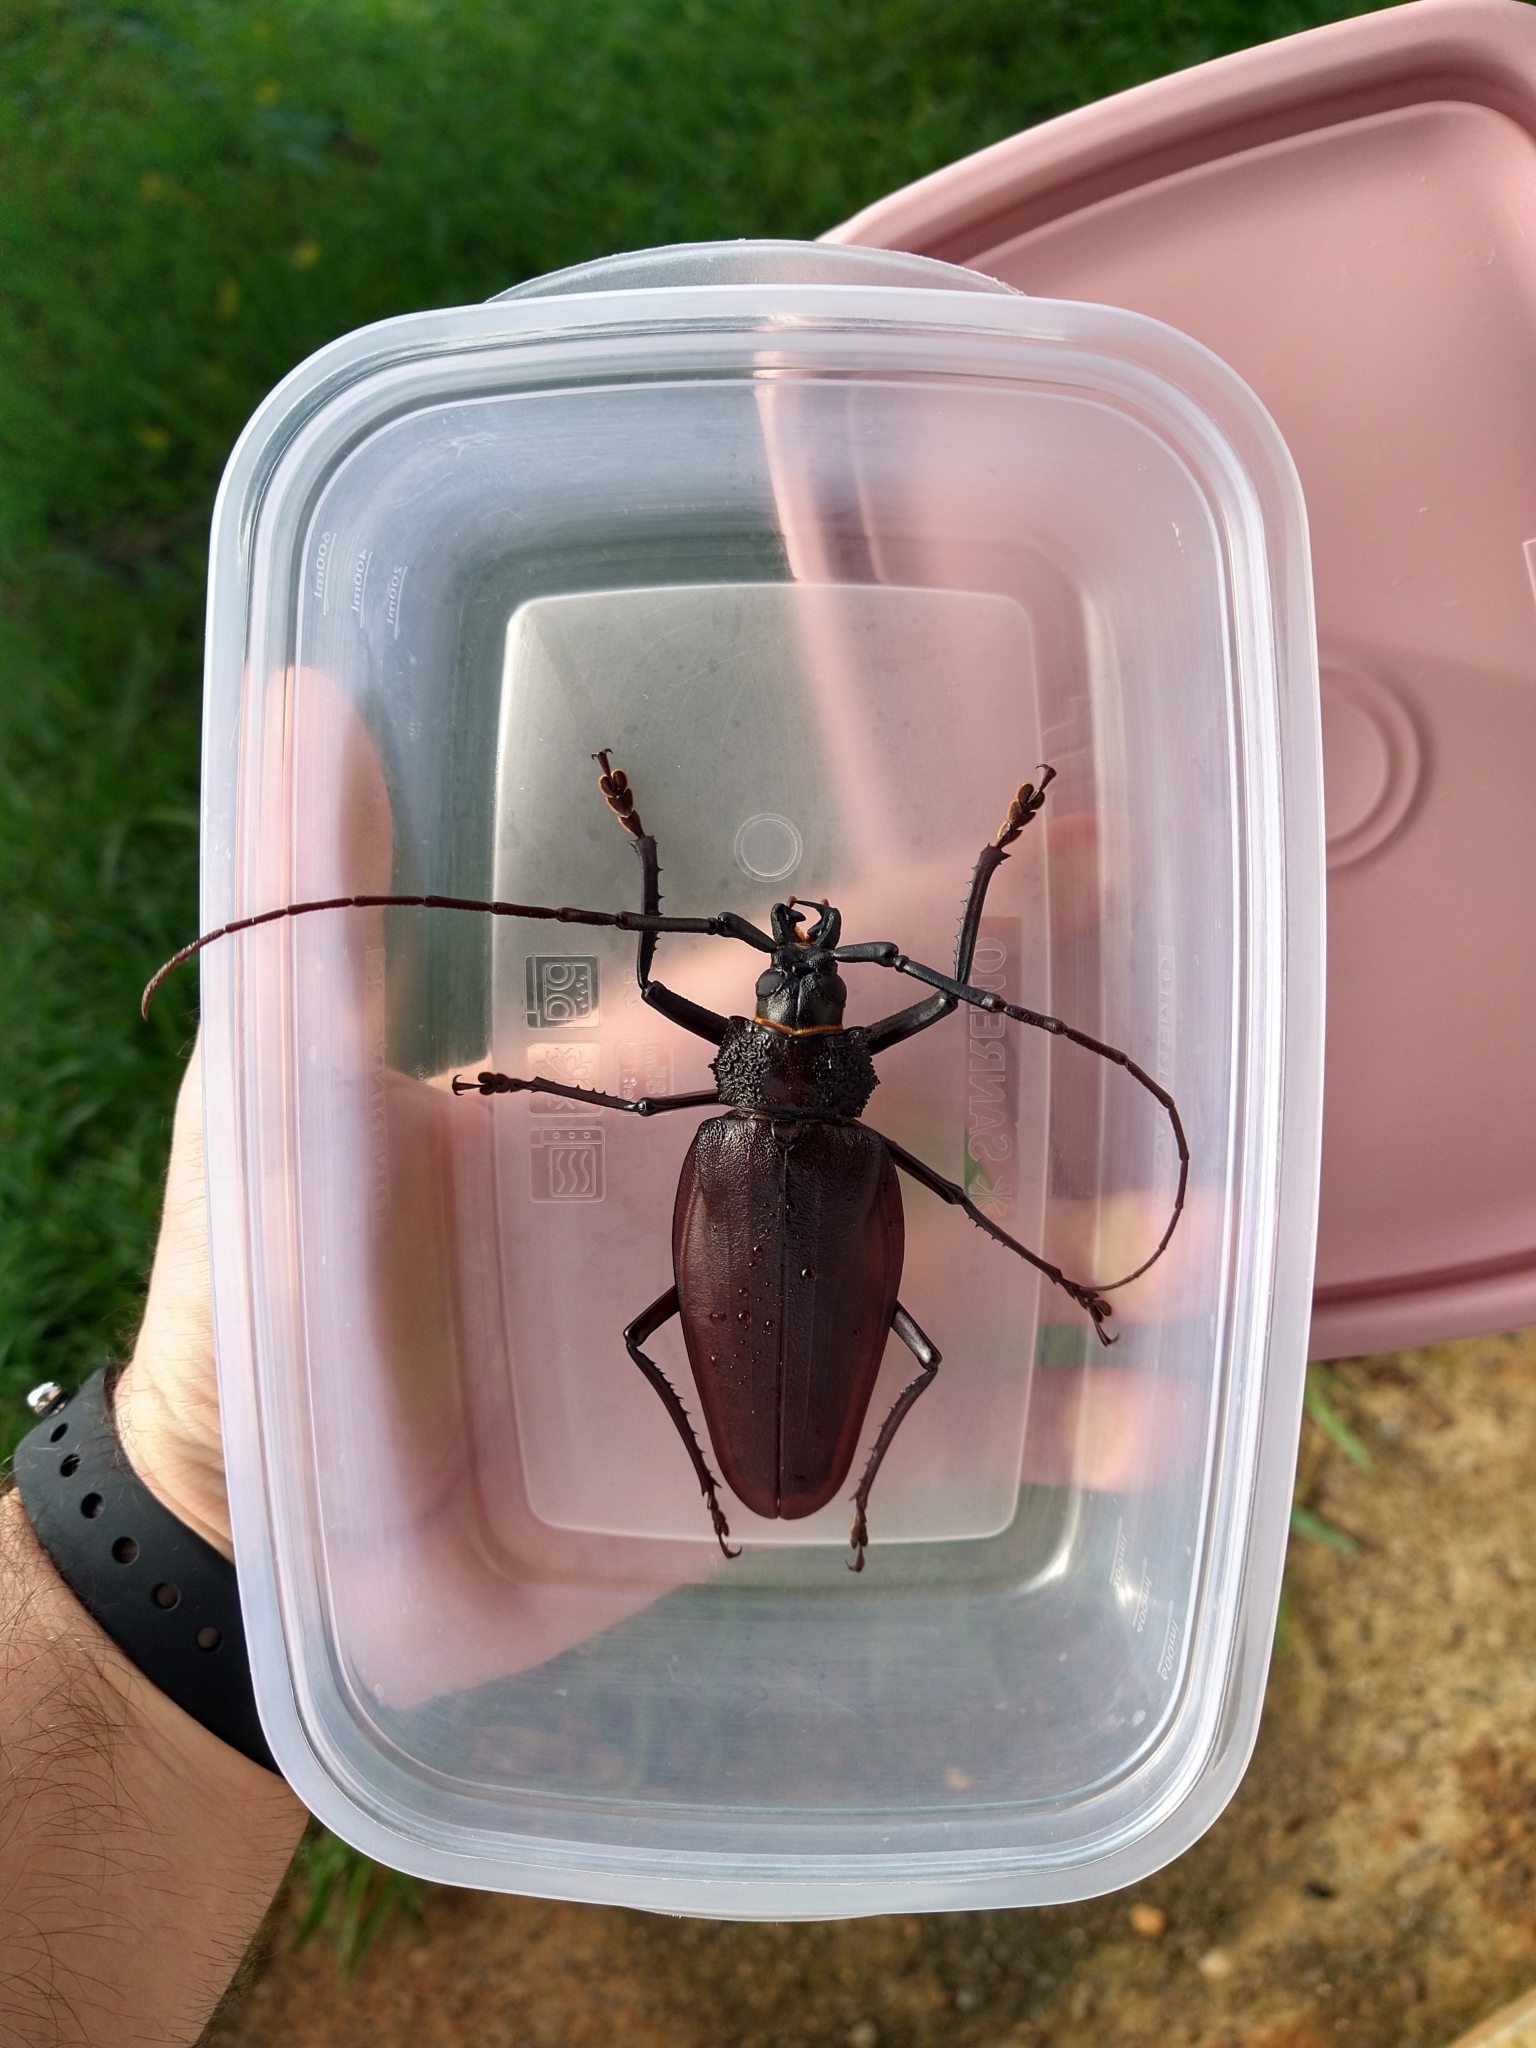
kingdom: Animalia
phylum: Arthropoda
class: Insecta
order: Coleoptera
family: Cerambycidae
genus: Ctenoscelis
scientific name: Ctenoscelis coeus
